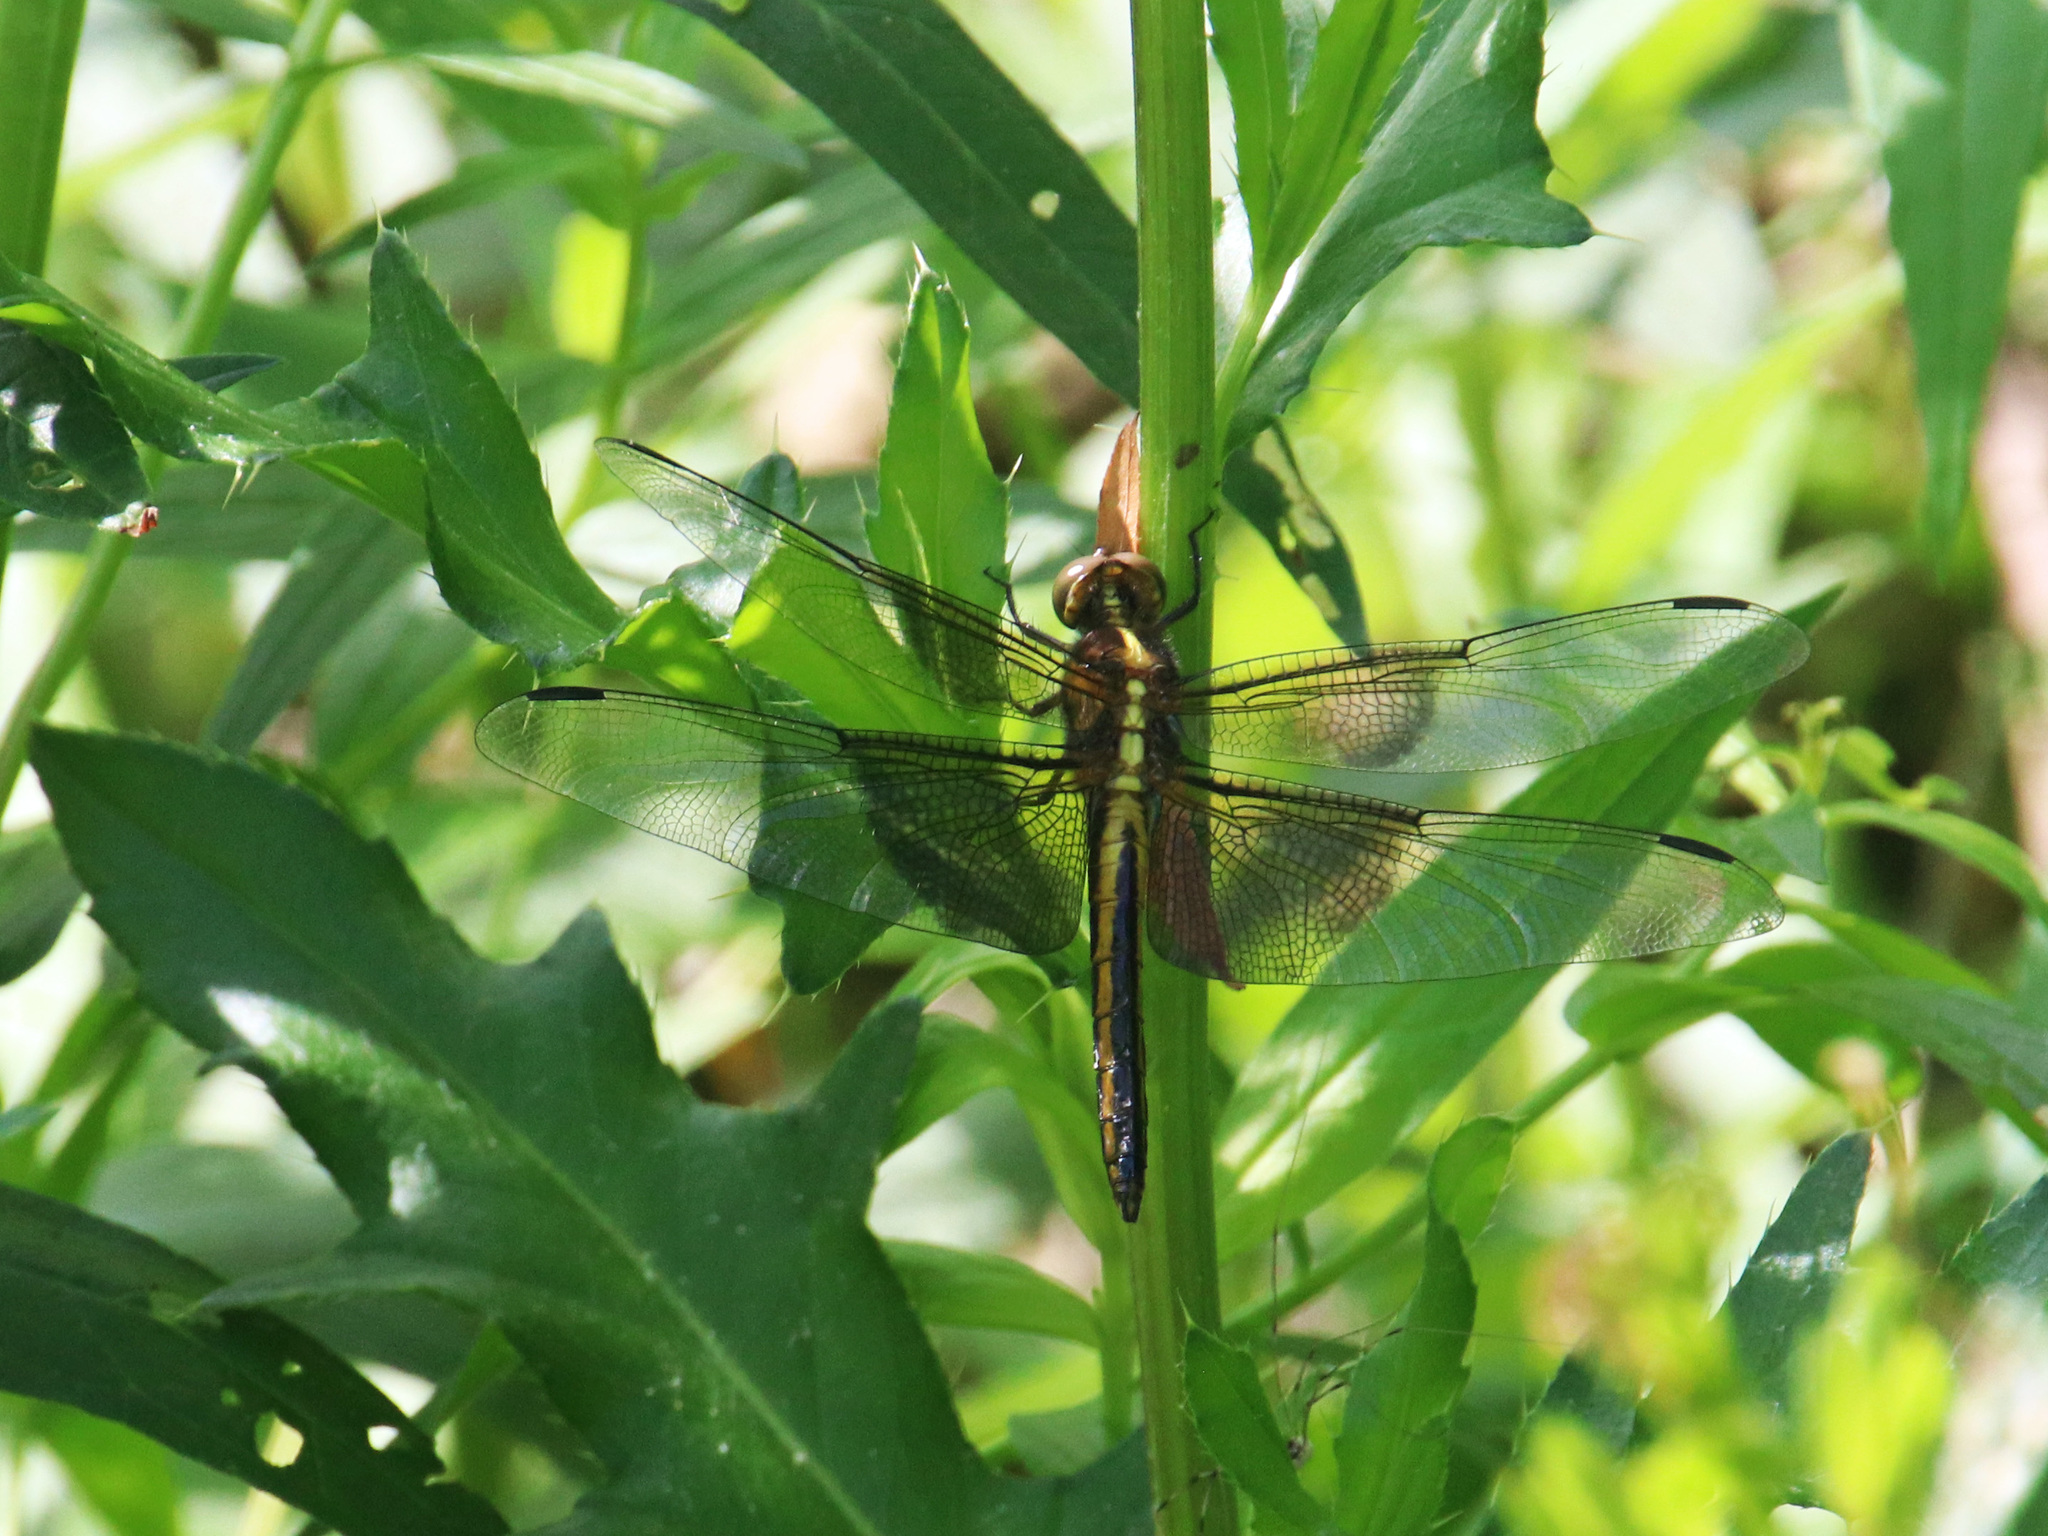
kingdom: Animalia
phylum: Arthropoda
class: Insecta
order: Odonata
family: Libellulidae
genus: Libellula
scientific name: Libellula luctuosa
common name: Widow skimmer
